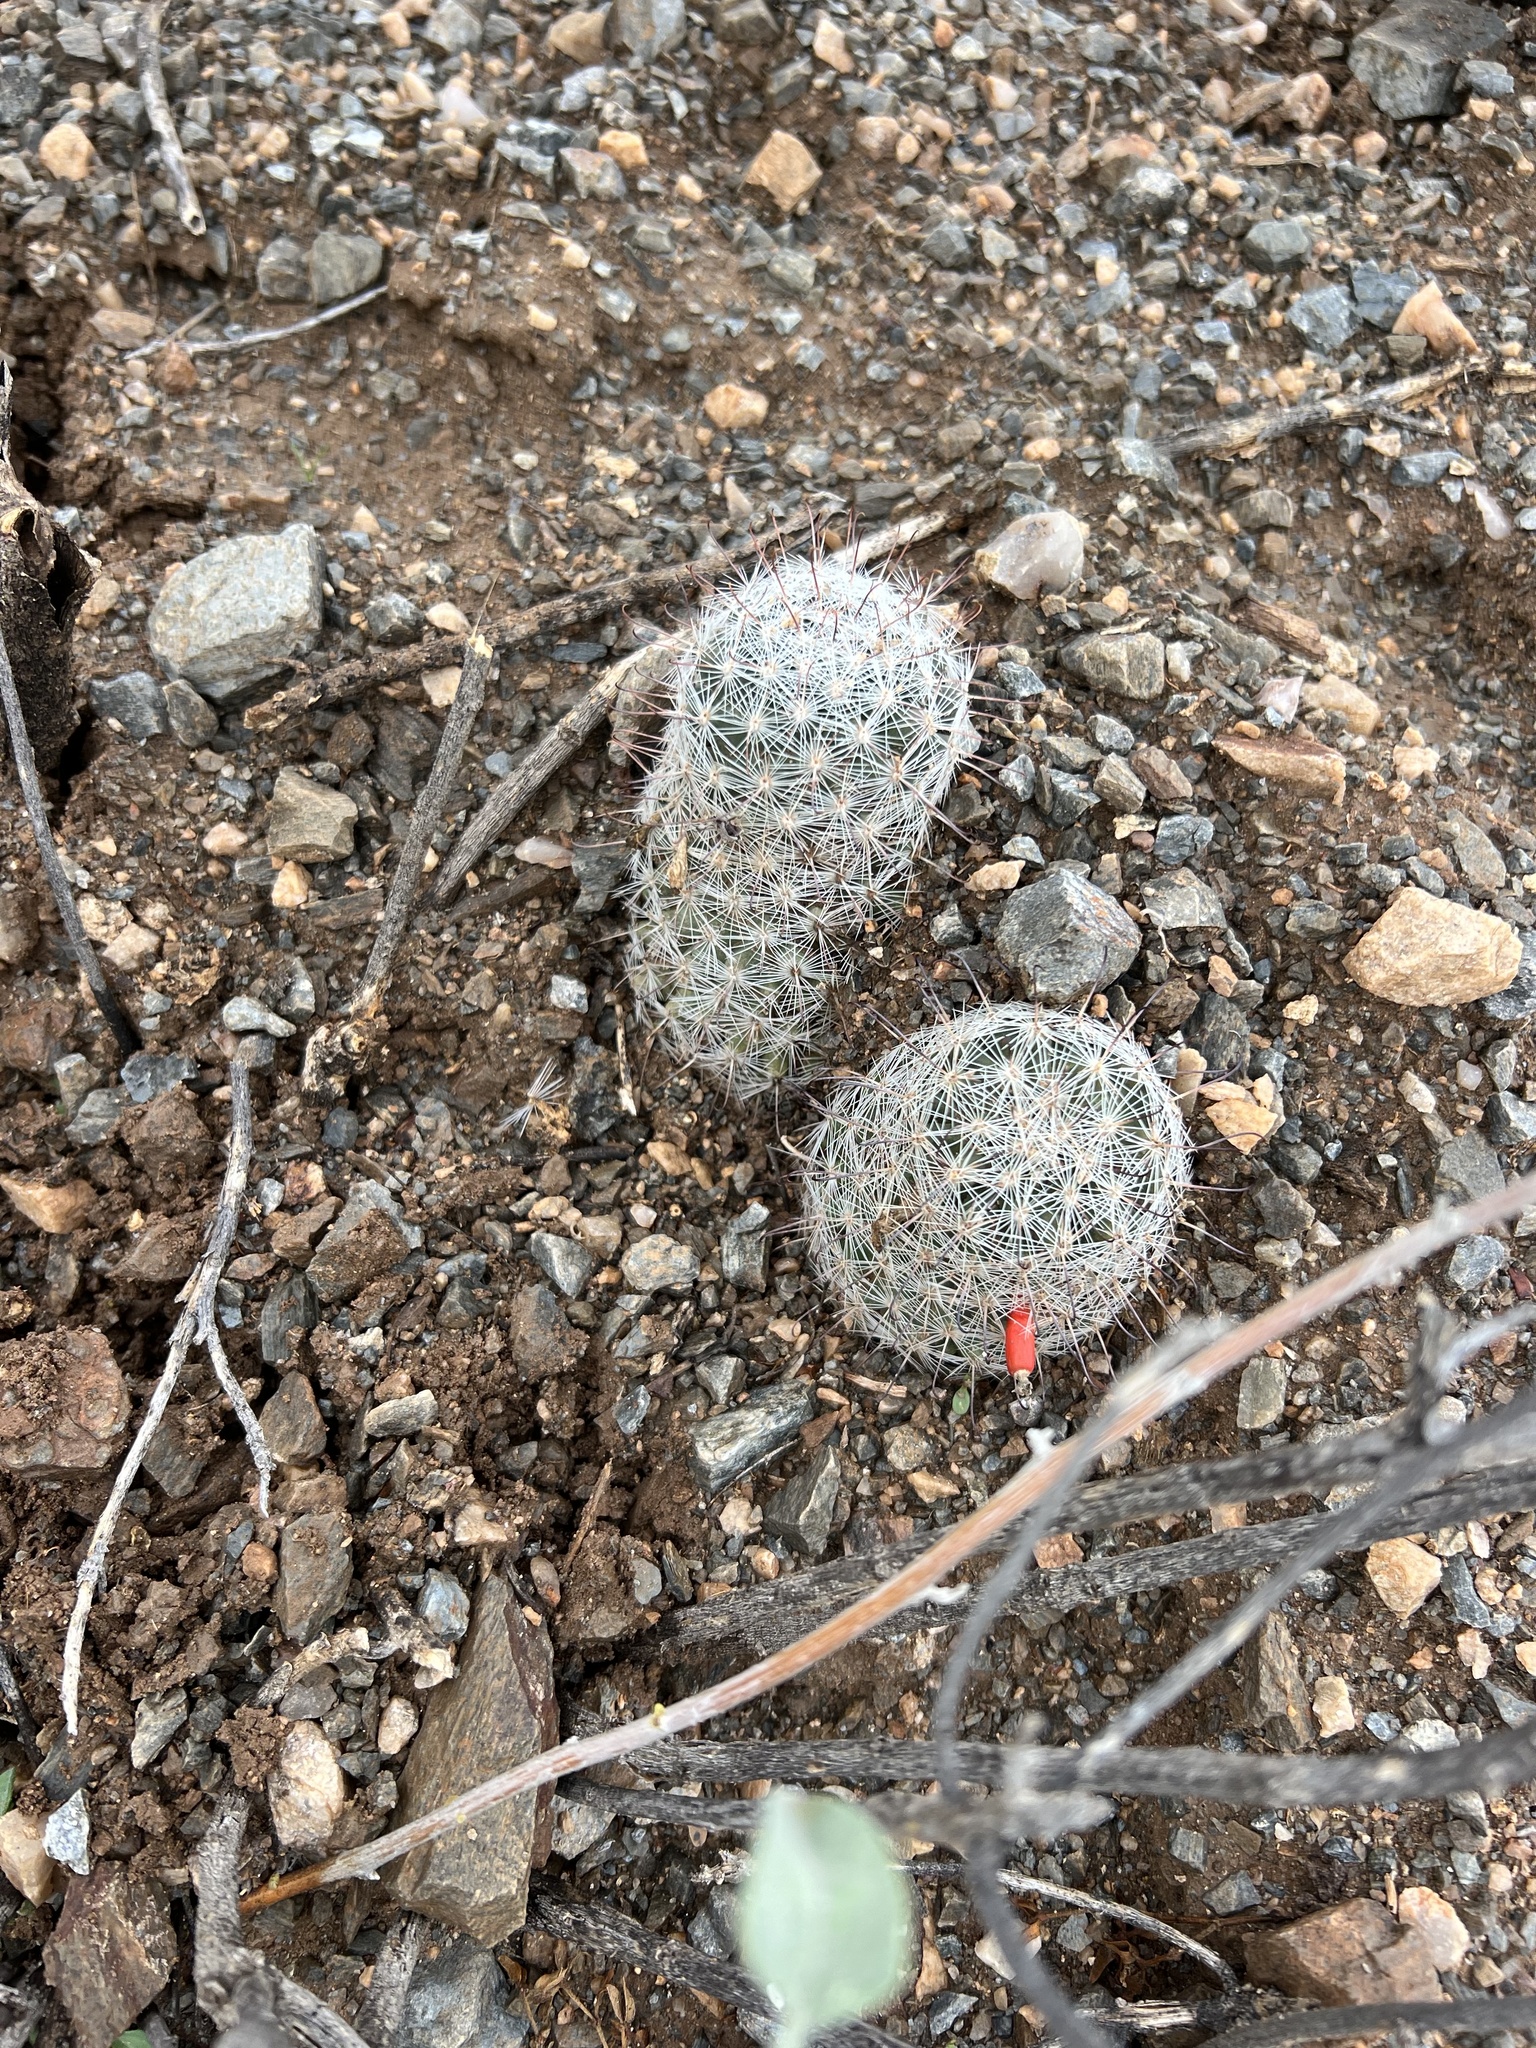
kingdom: Plantae
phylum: Tracheophyta
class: Magnoliopsida
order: Caryophyllales
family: Cactaceae
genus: Cochemiea
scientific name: Cochemiea grahamii
